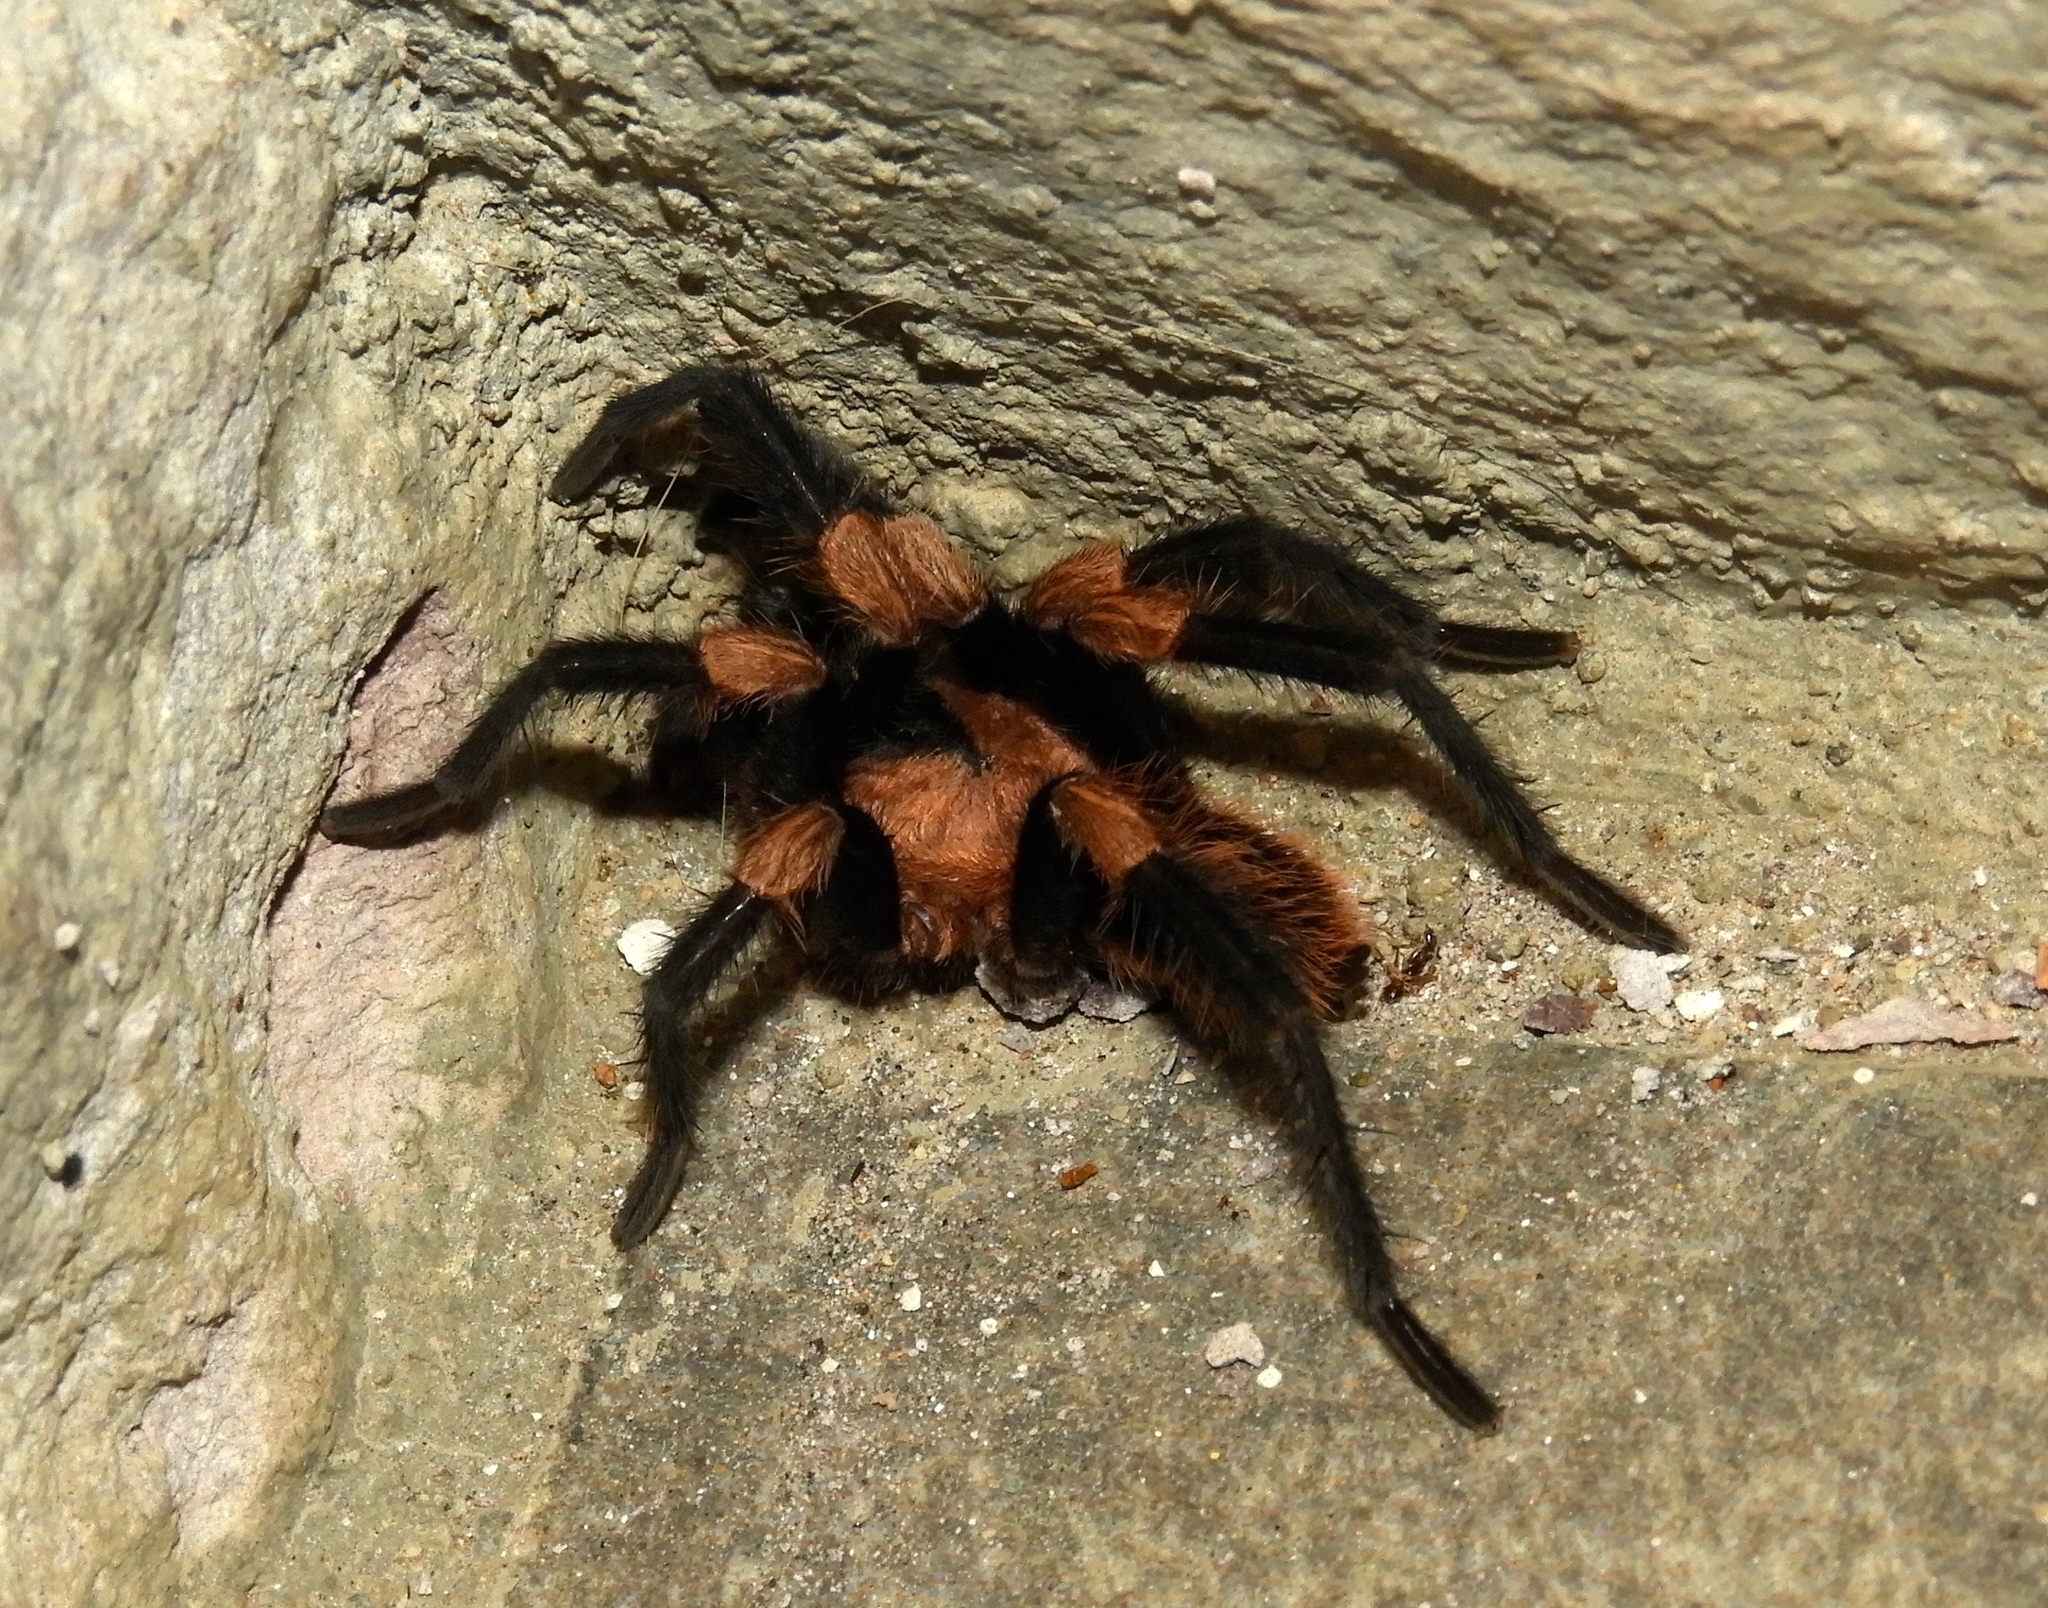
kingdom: Animalia
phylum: Arthropoda
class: Arachnida
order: Araneae
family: Theraphosidae
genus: Magnacarina
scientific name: Magnacarina
